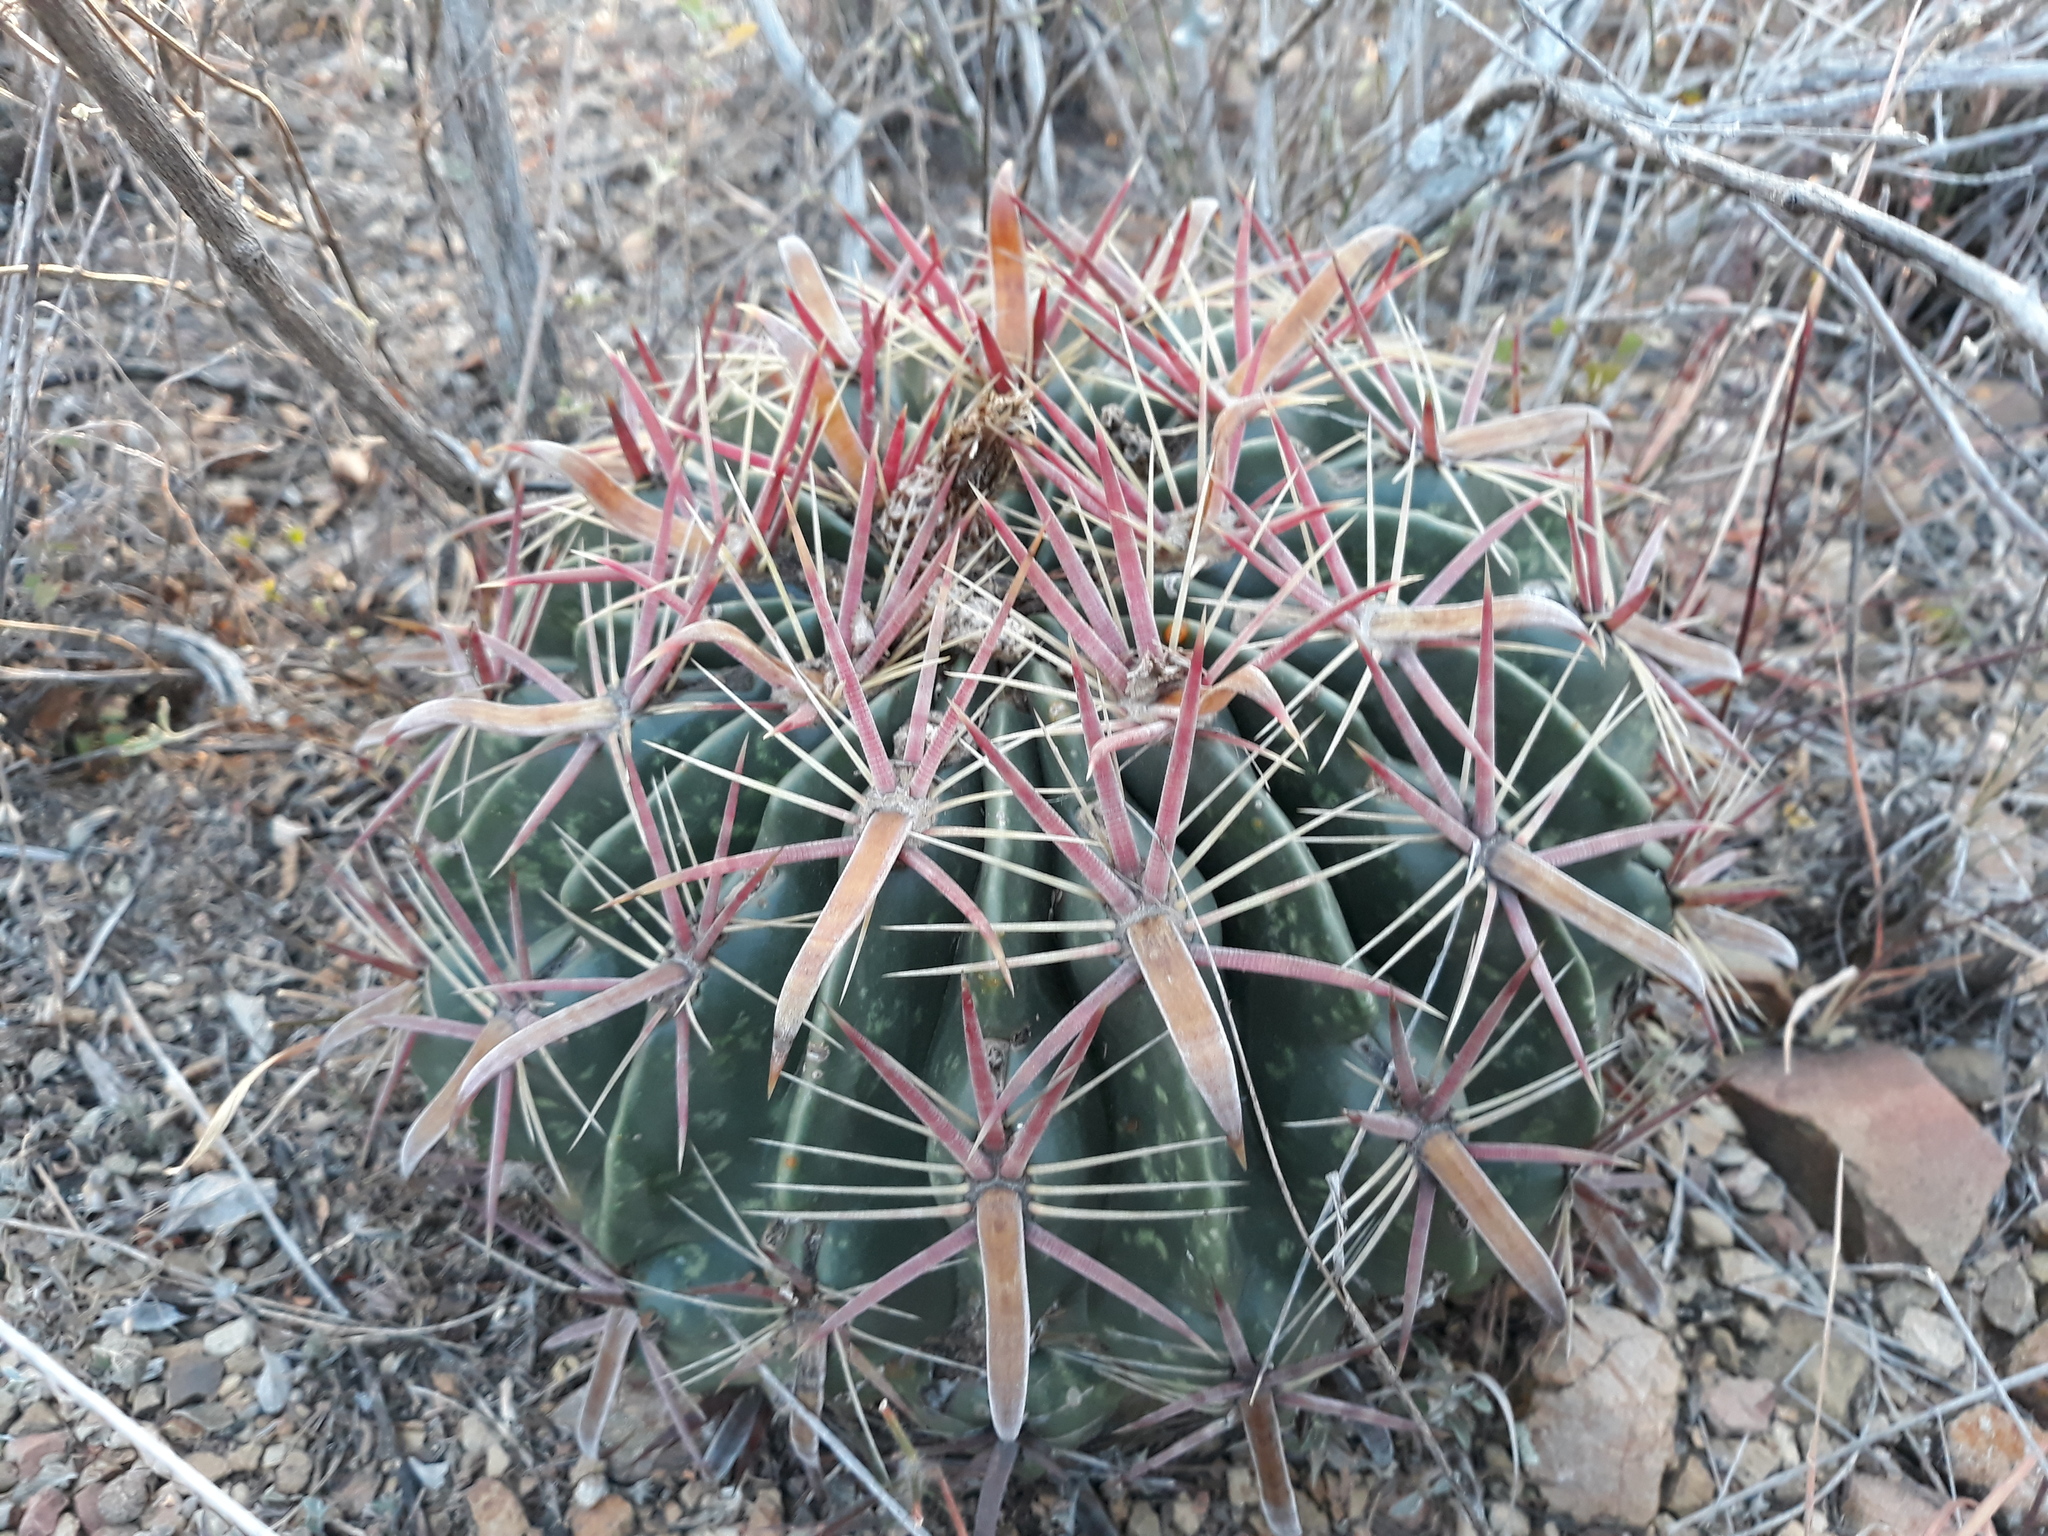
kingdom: Plantae
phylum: Tracheophyta
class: Magnoliopsida
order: Caryophyllales
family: Cactaceae
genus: Ferocactus
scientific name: Ferocactus latispinus
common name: Devil's-tongue cactus
